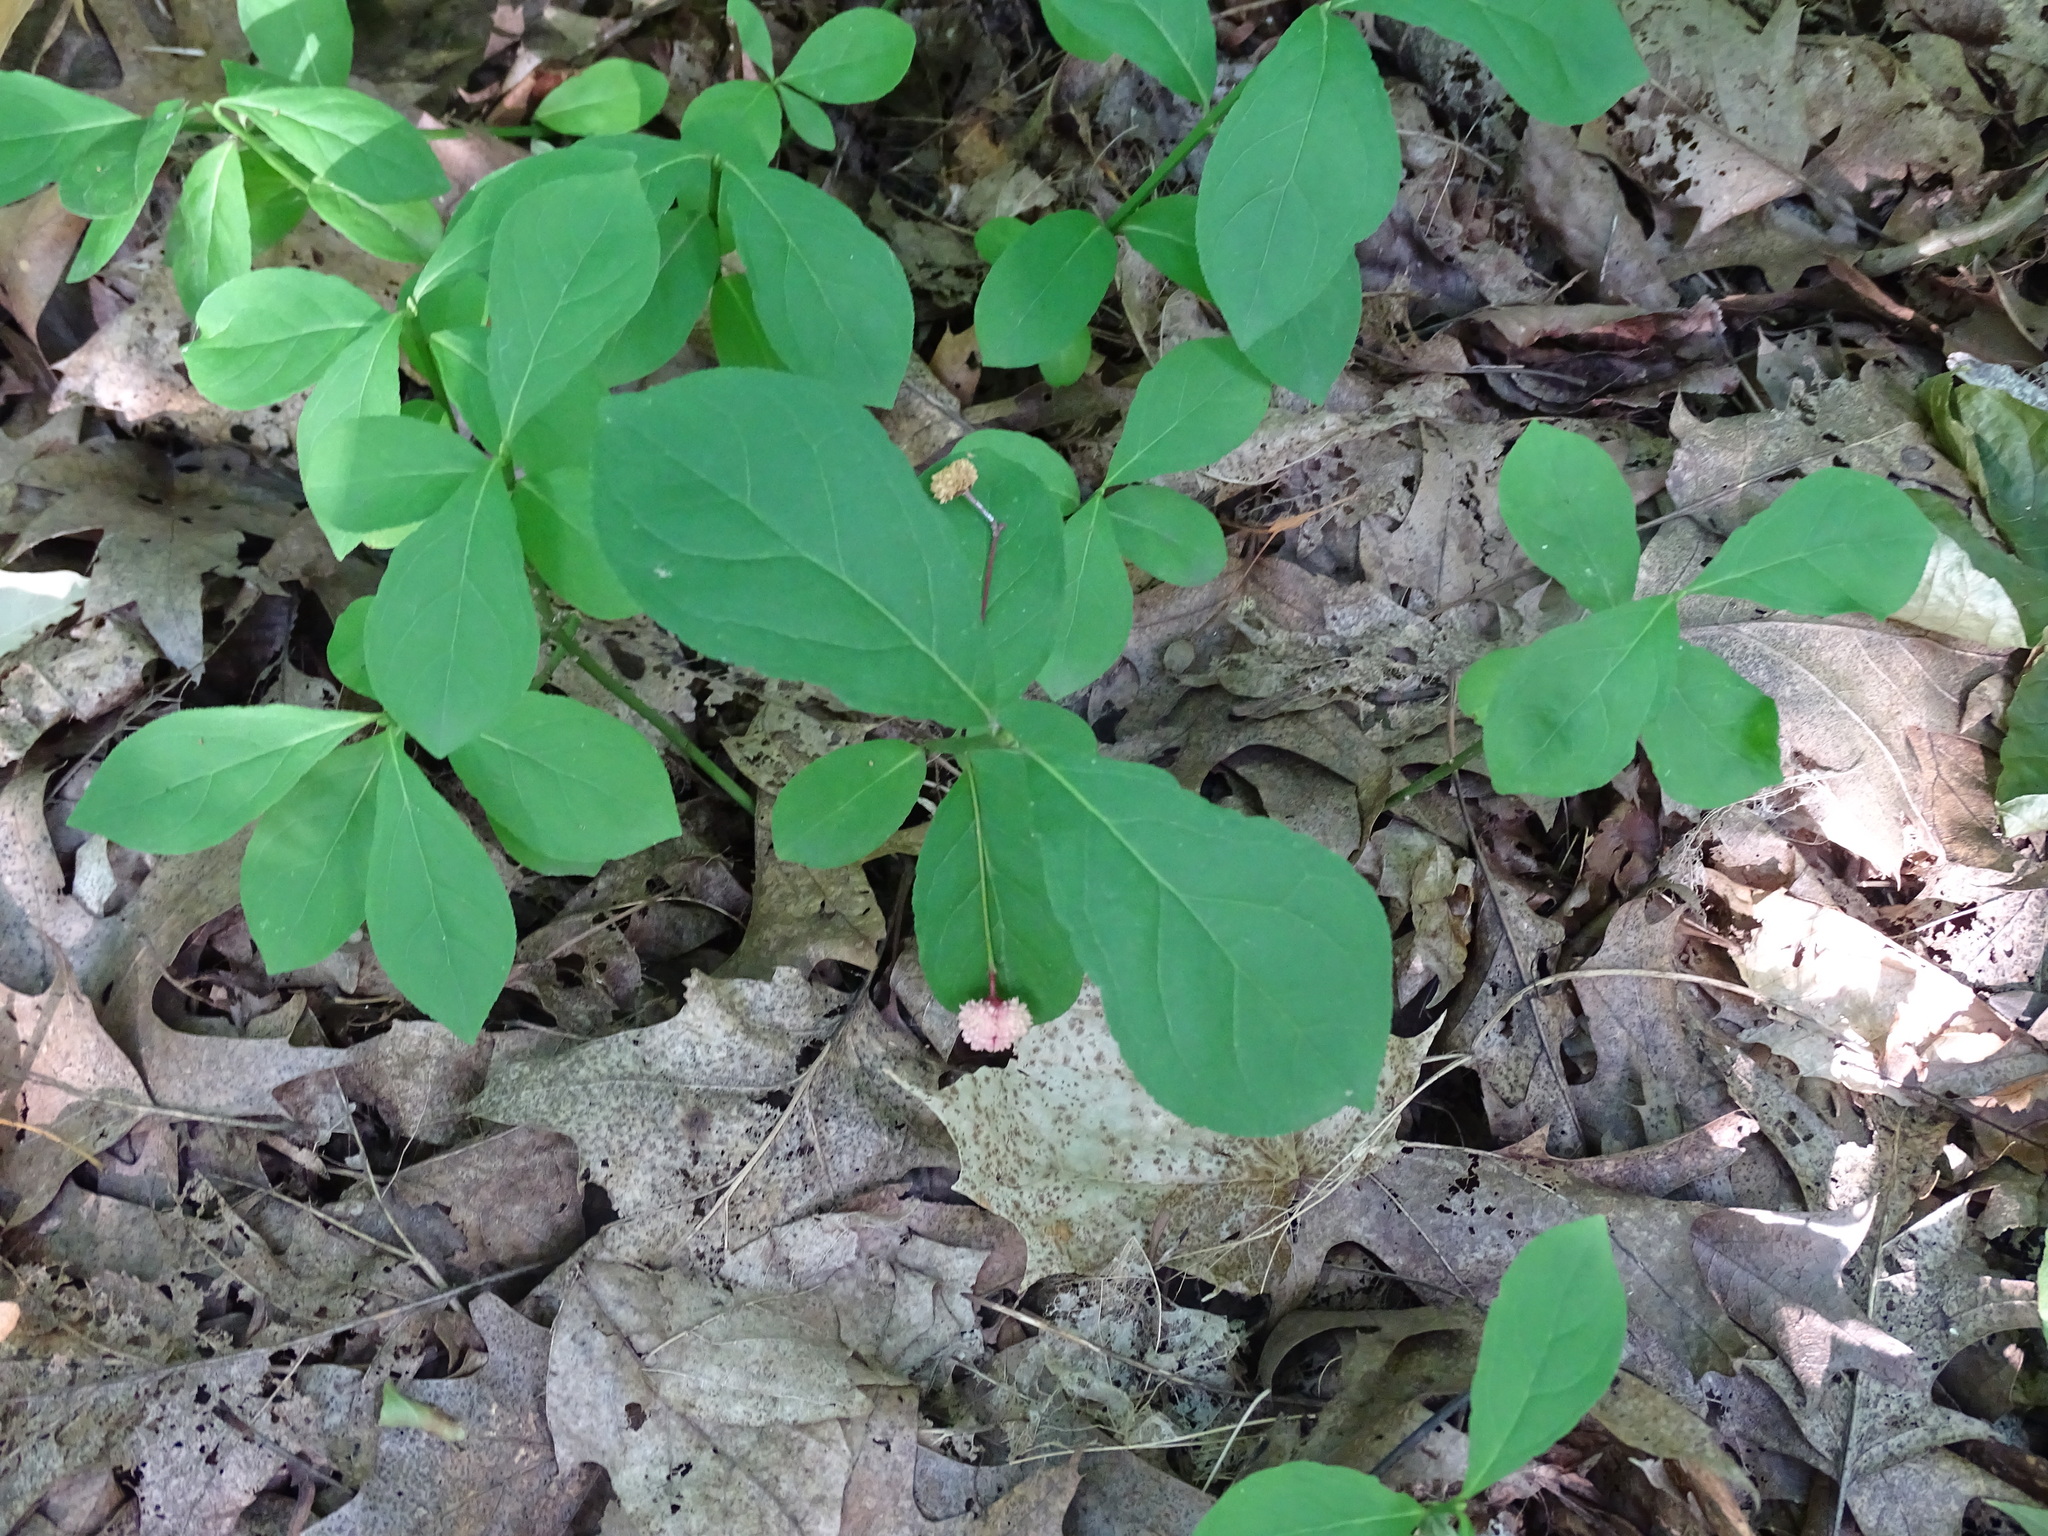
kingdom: Plantae
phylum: Tracheophyta
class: Magnoliopsida
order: Celastrales
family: Celastraceae
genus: Euonymus
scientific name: Euonymus obovatus
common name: Running strawberry-bush
